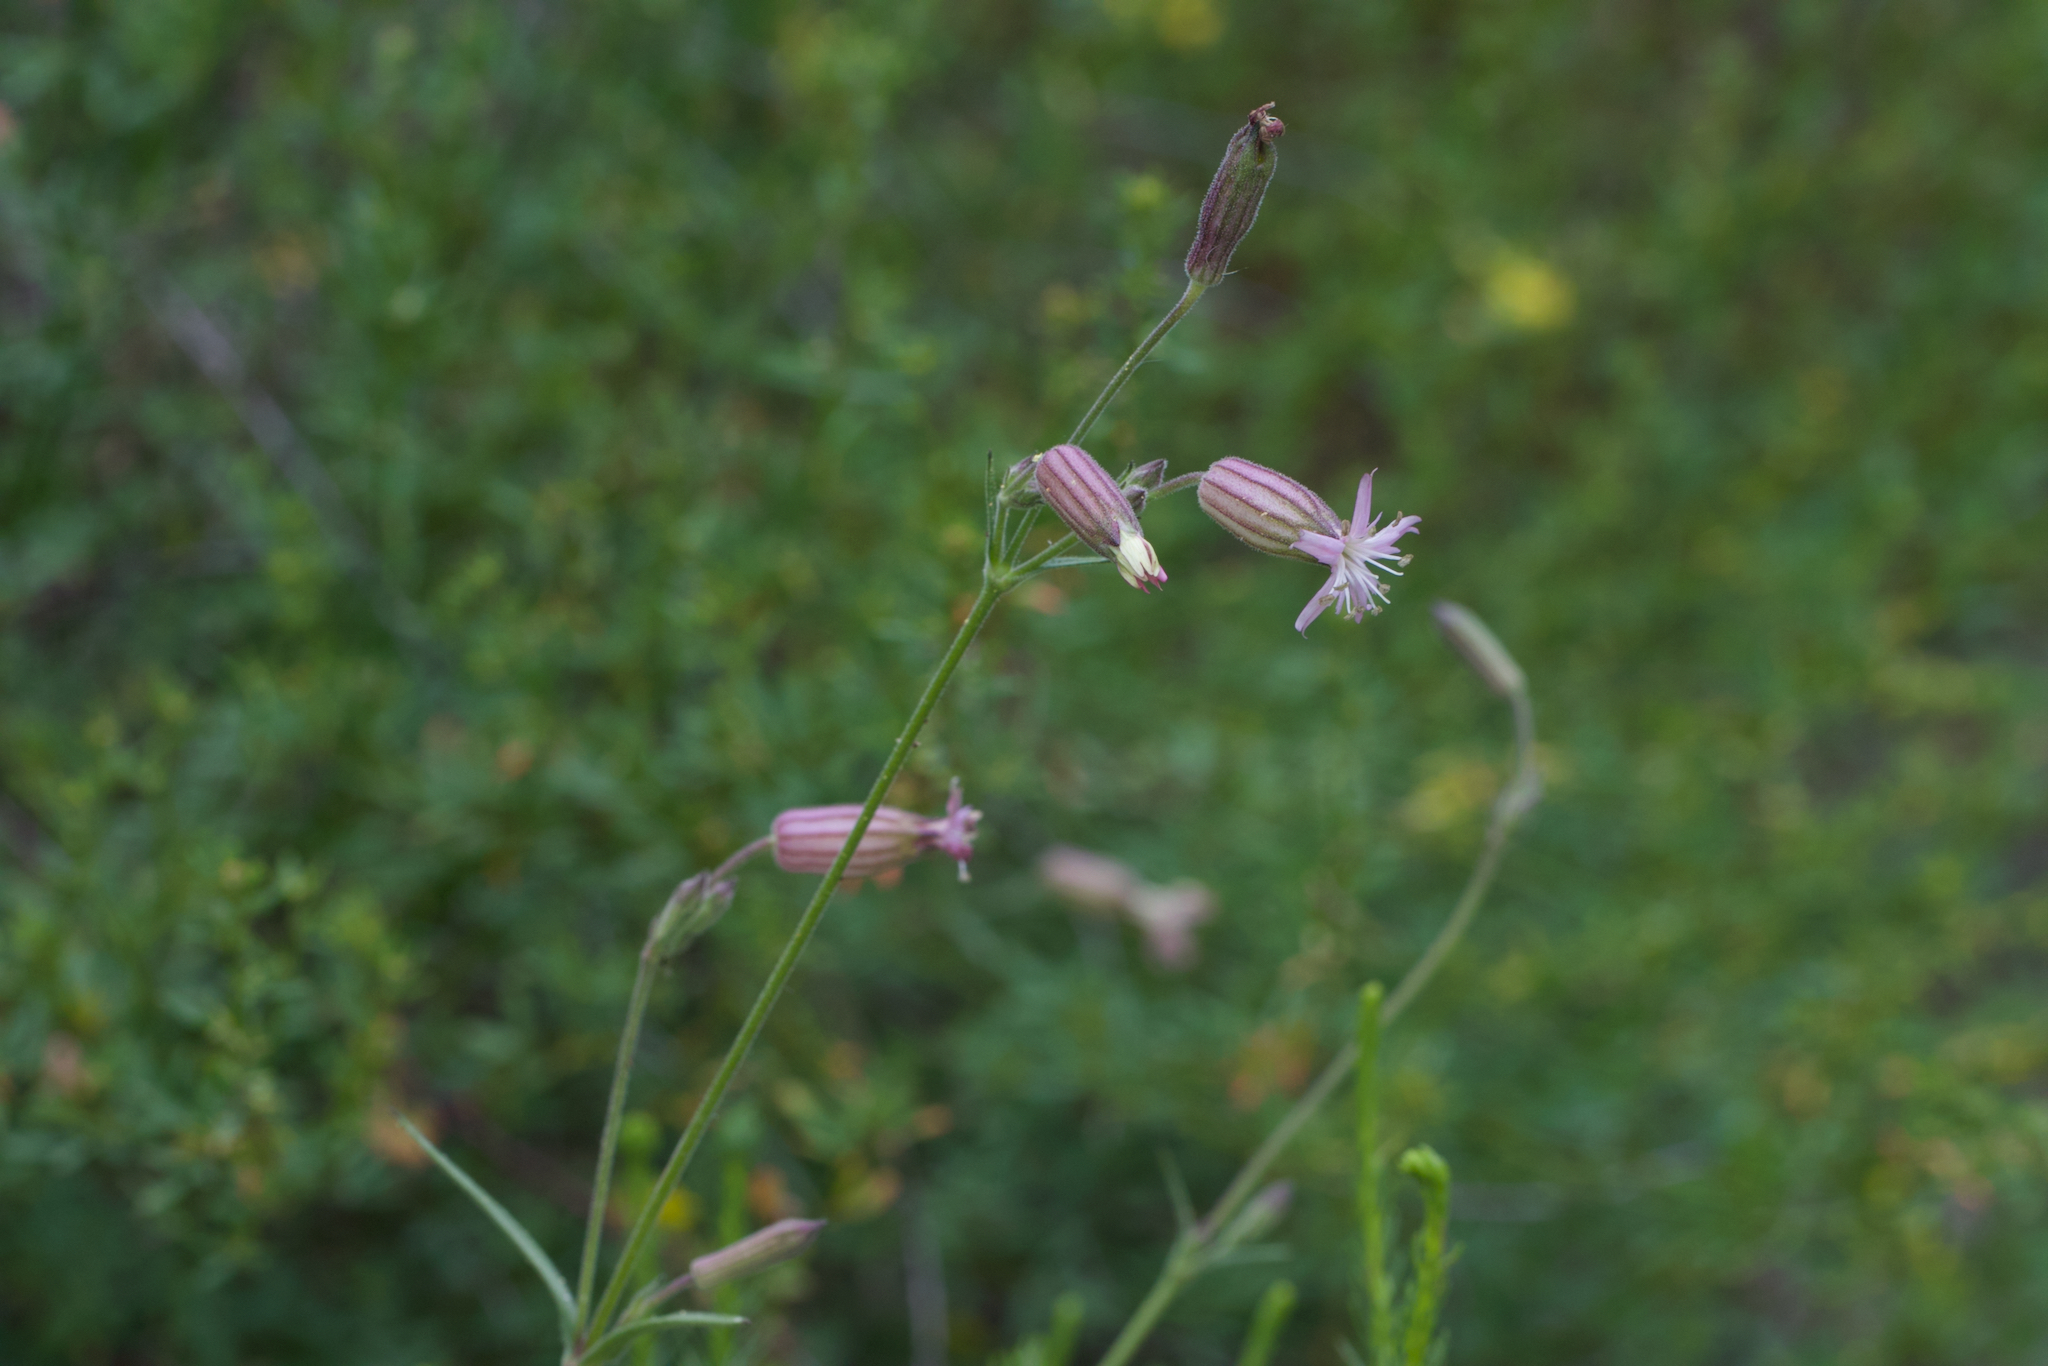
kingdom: Plantae
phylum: Tracheophyta
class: Magnoliopsida
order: Caryophyllales
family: Caryophyllaceae
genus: Silene
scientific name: Silene verecunda
